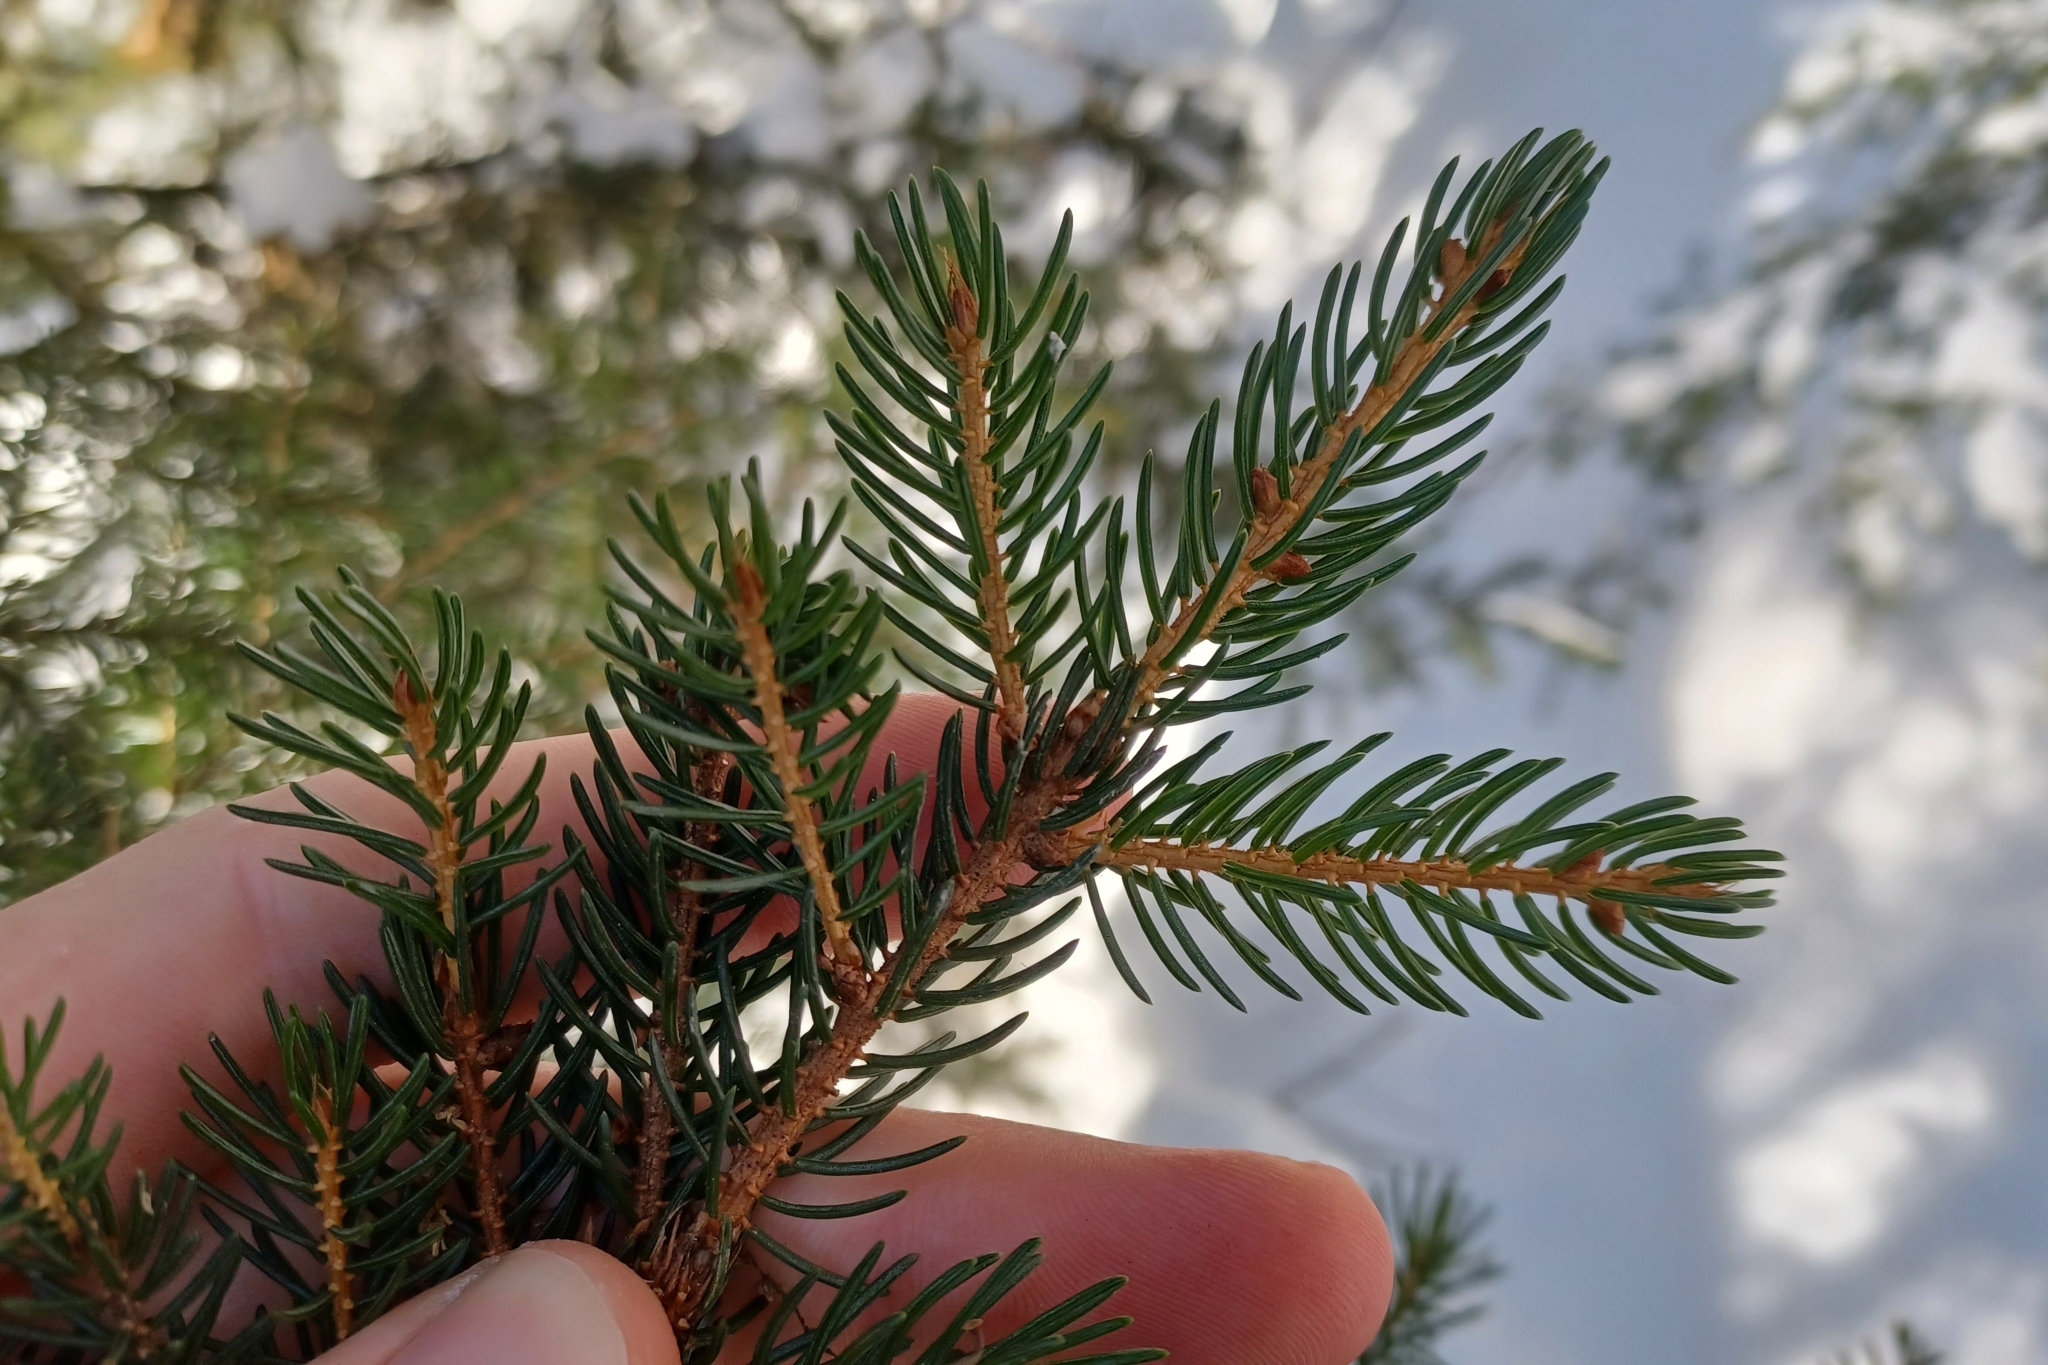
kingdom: Plantae
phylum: Tracheophyta
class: Pinopsida
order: Pinales
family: Pinaceae
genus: Picea
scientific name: Picea rubens
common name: Red spruce
